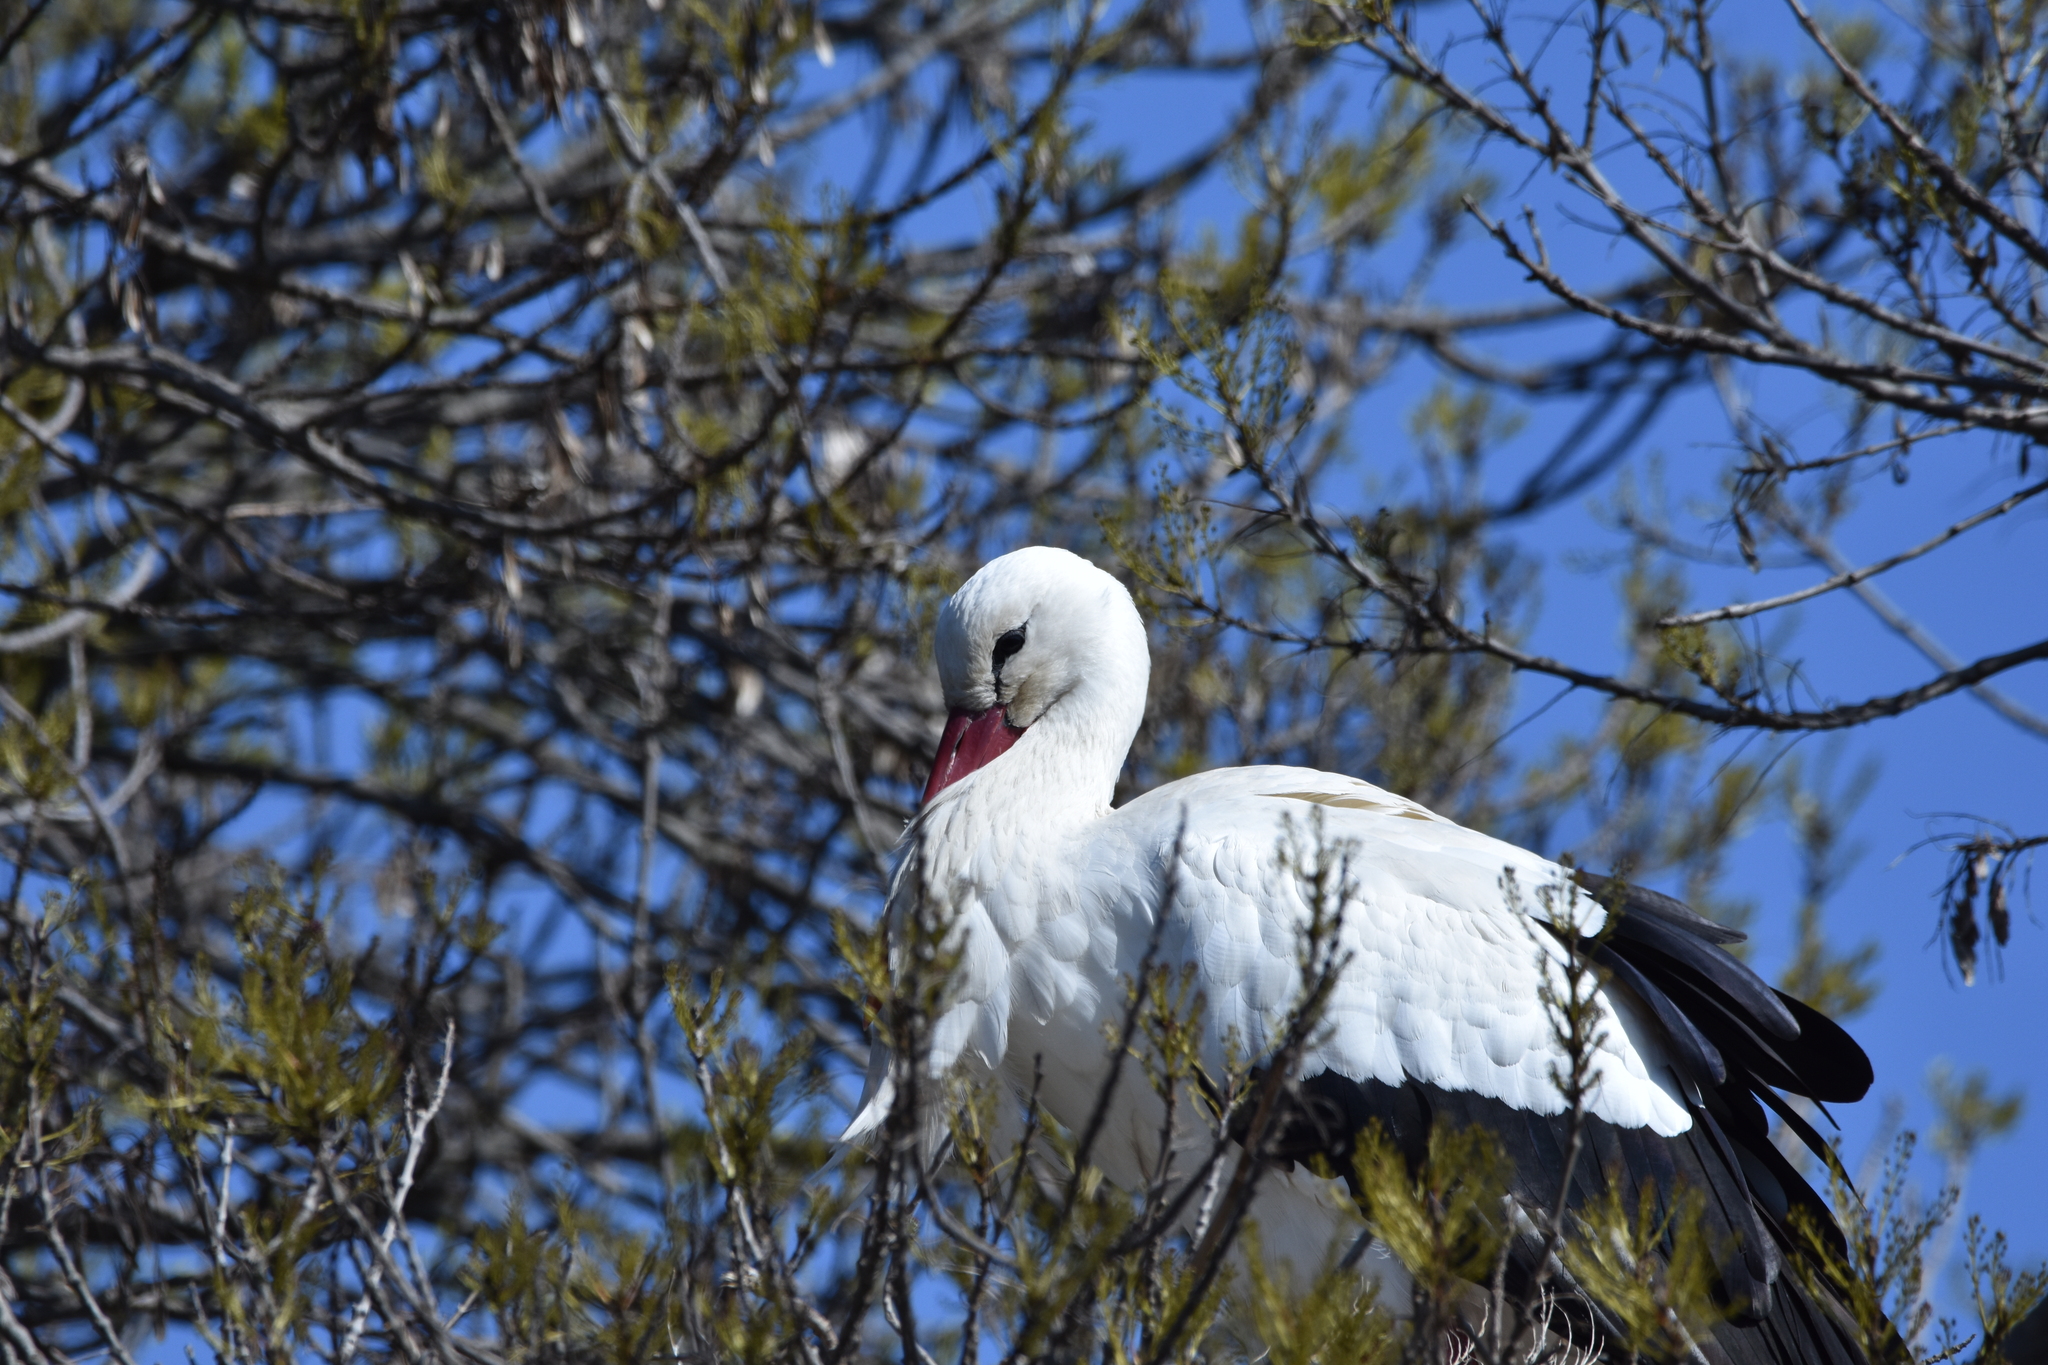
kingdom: Animalia
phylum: Chordata
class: Aves
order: Ciconiiformes
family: Ciconiidae
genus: Ciconia
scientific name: Ciconia ciconia
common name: White stork
